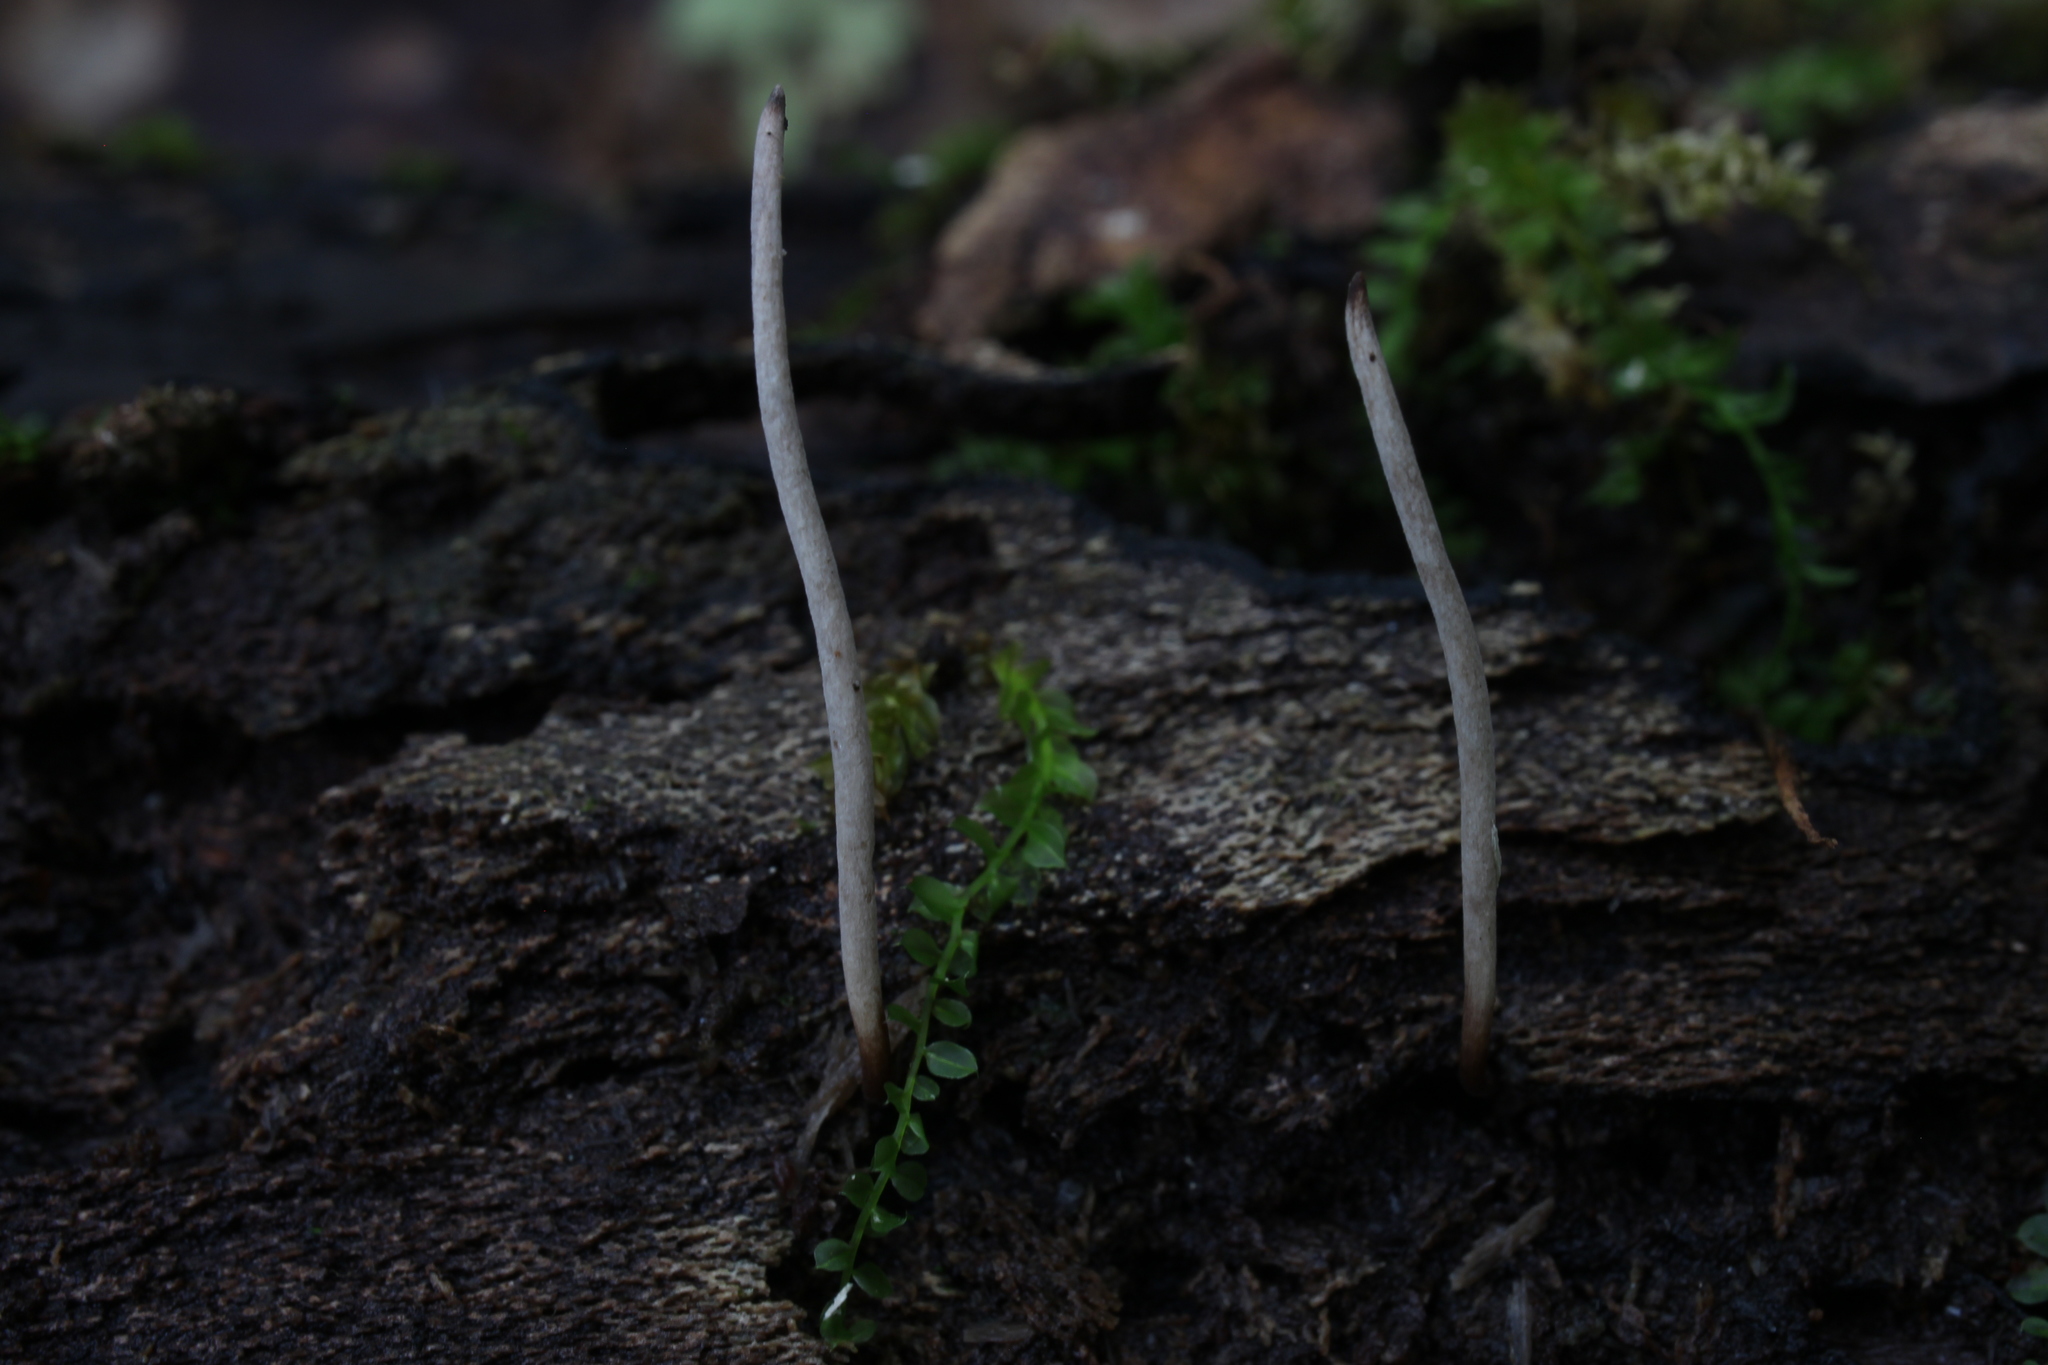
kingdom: Fungi
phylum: Ascomycota
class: Sordariomycetes
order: Hypocreales
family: Ophiocordycipitaceae
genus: Ophiocordyceps
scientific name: Ophiocordyceps stylophora
